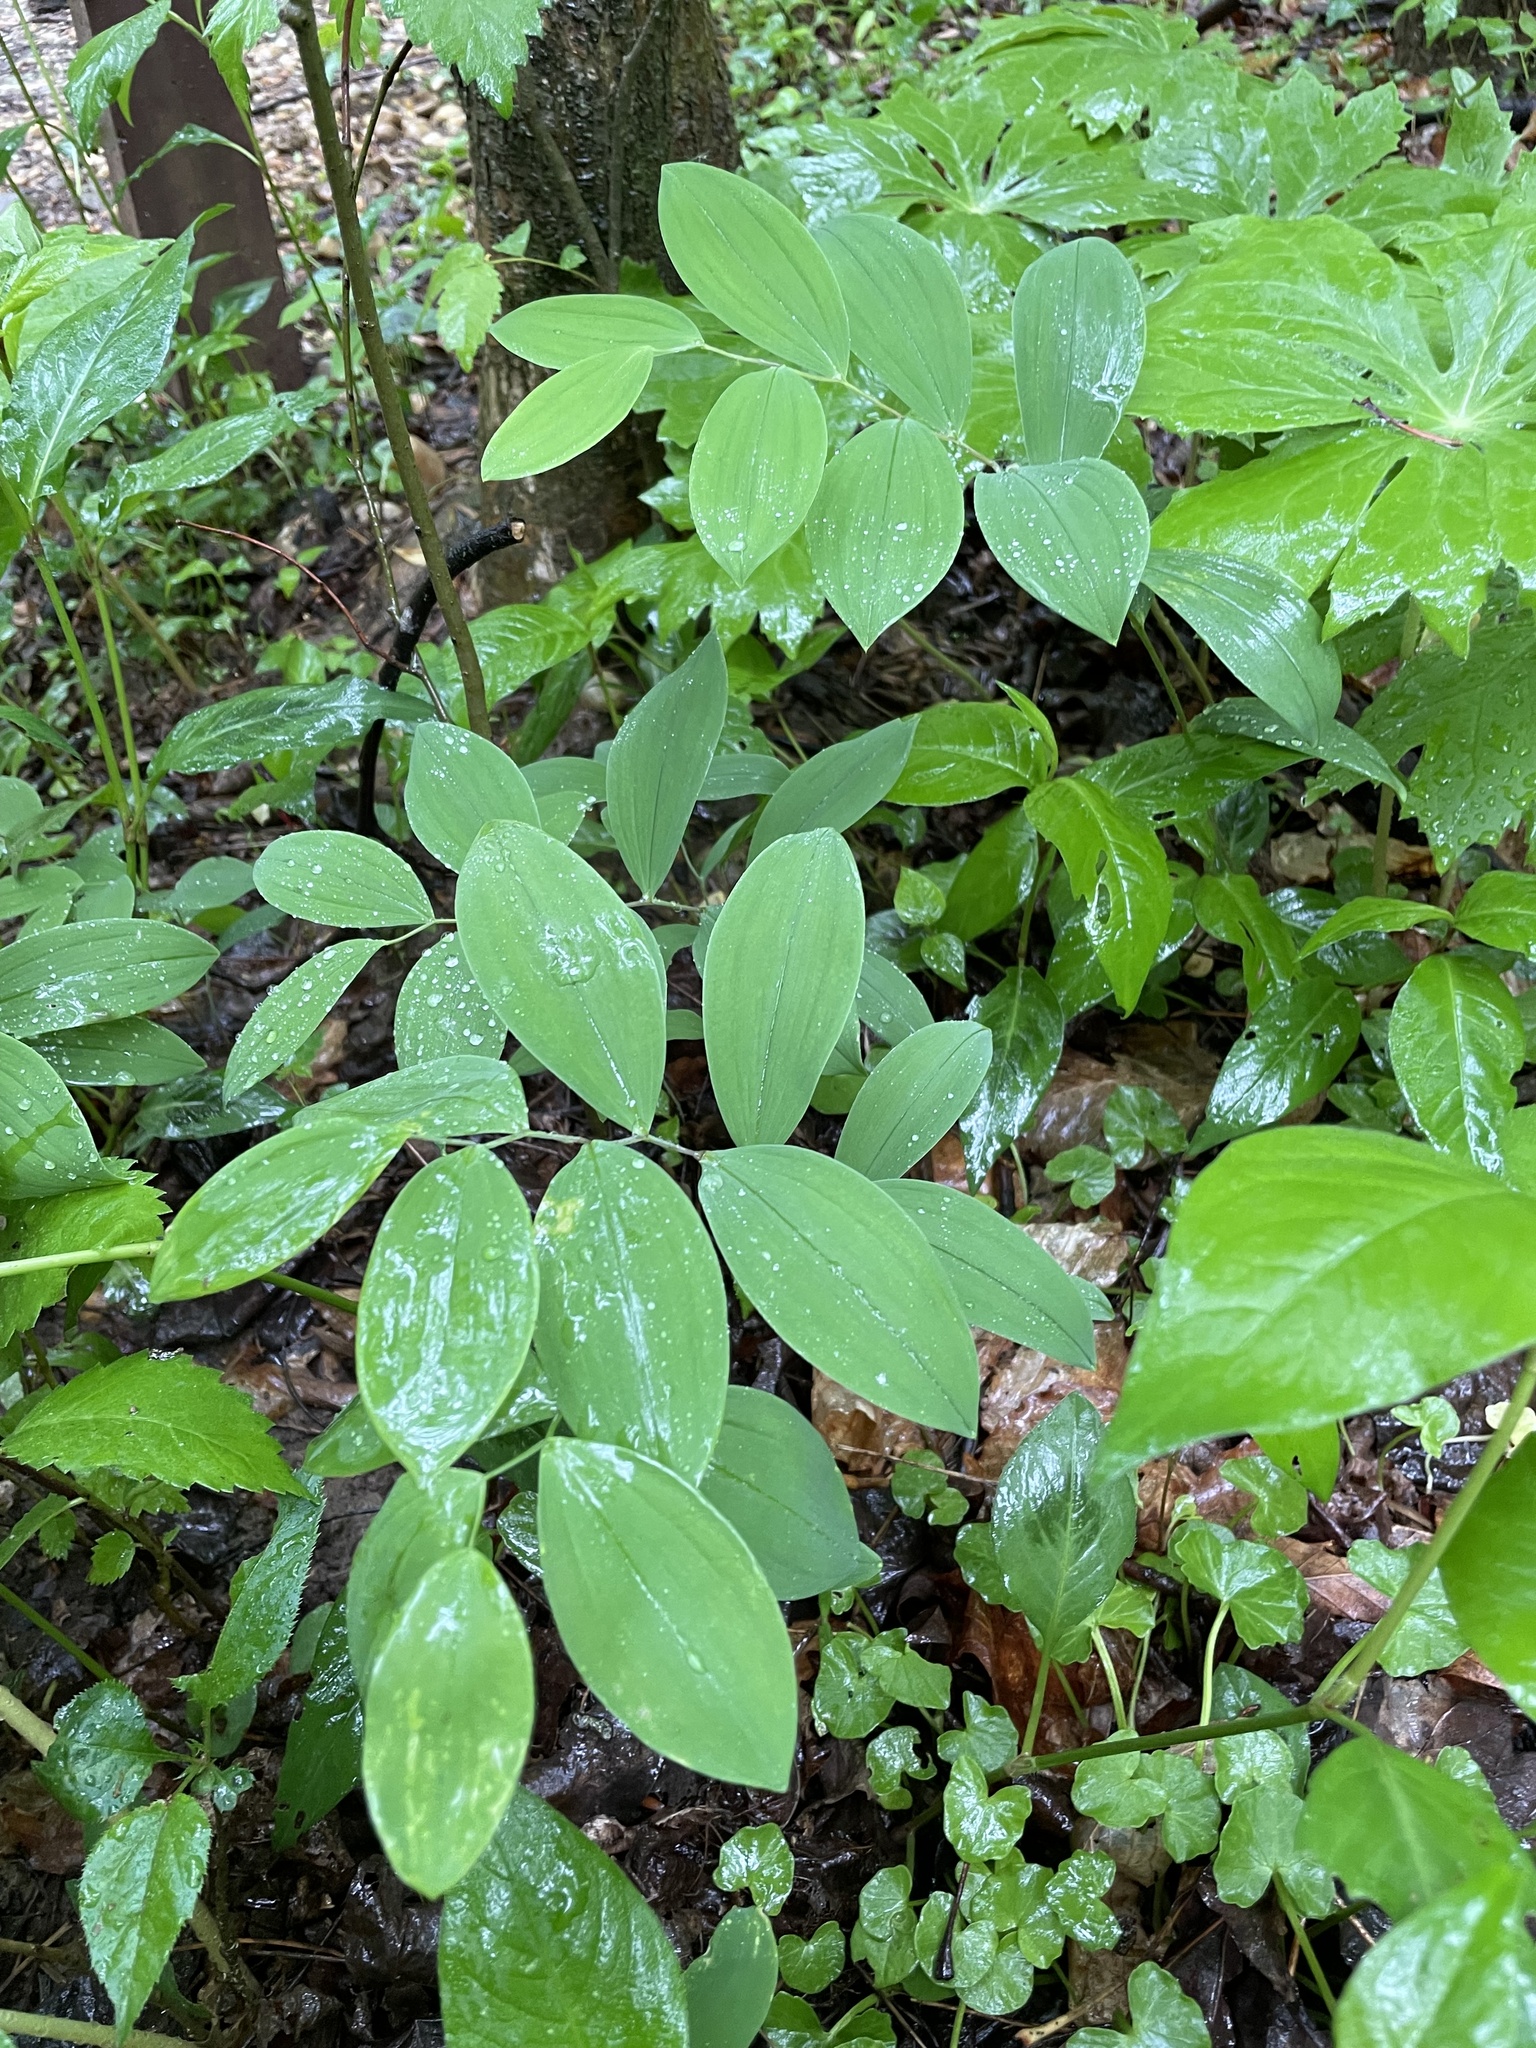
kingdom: Plantae
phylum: Tracheophyta
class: Liliopsida
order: Liliales
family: Colchicaceae
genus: Uvularia
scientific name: Uvularia sessilifolia
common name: Straw-lily
